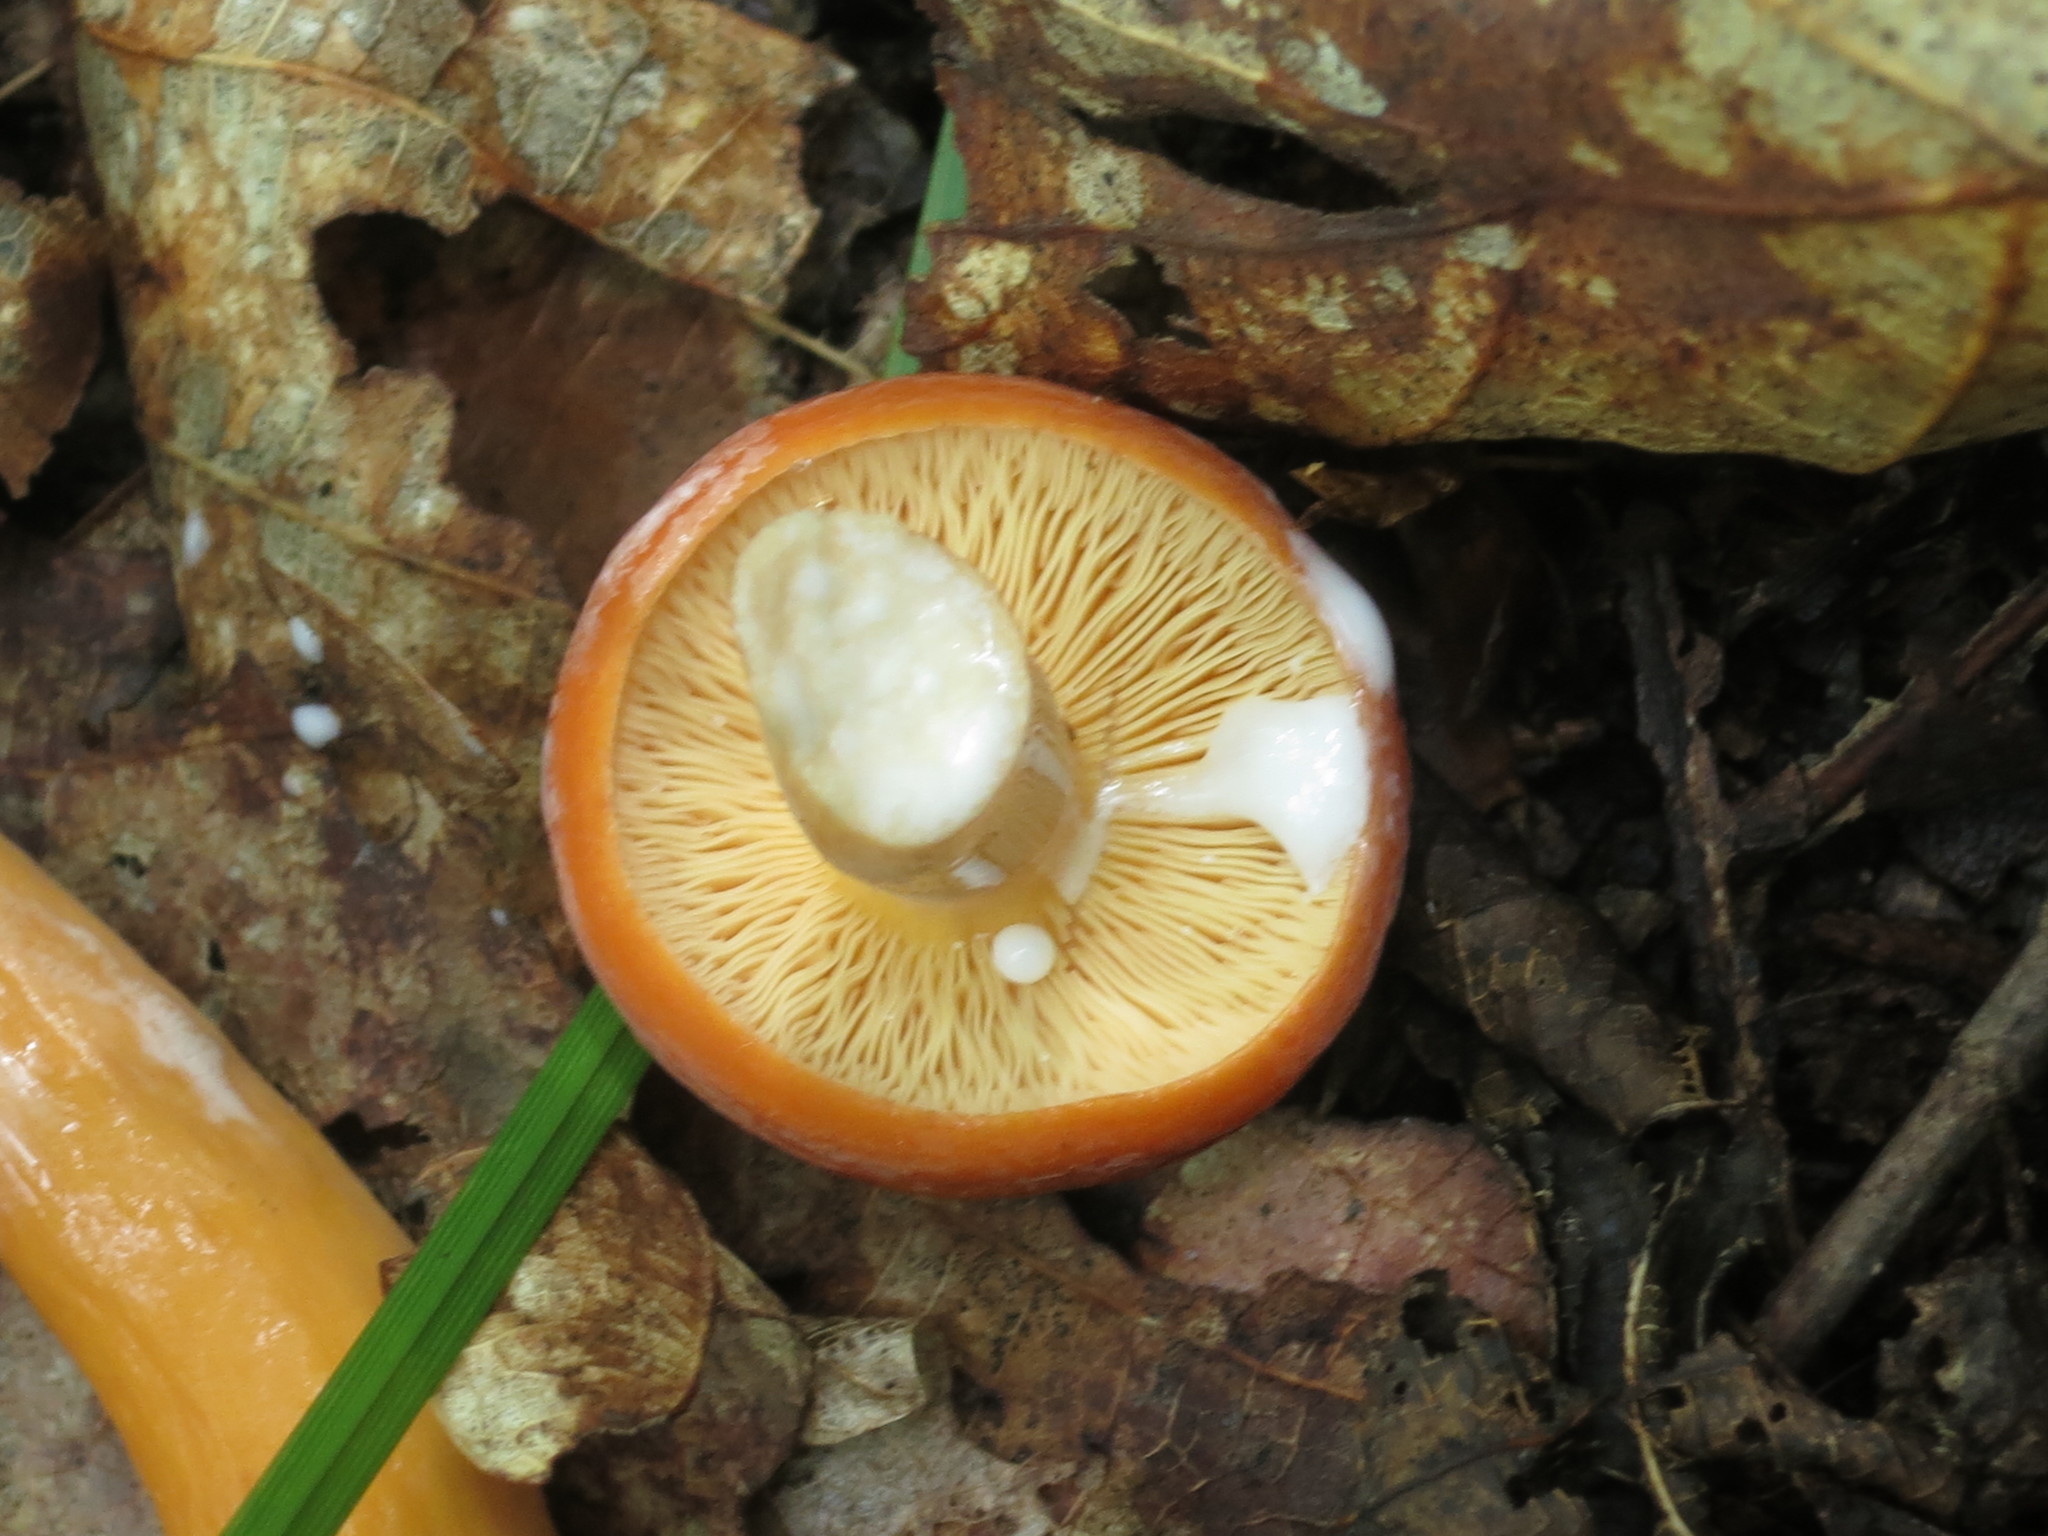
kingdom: Fungi
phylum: Basidiomycota
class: Agaricomycetes
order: Russulales
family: Russulaceae
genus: Lactifluus
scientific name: Lactifluus volemus
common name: Fishy milkcap
